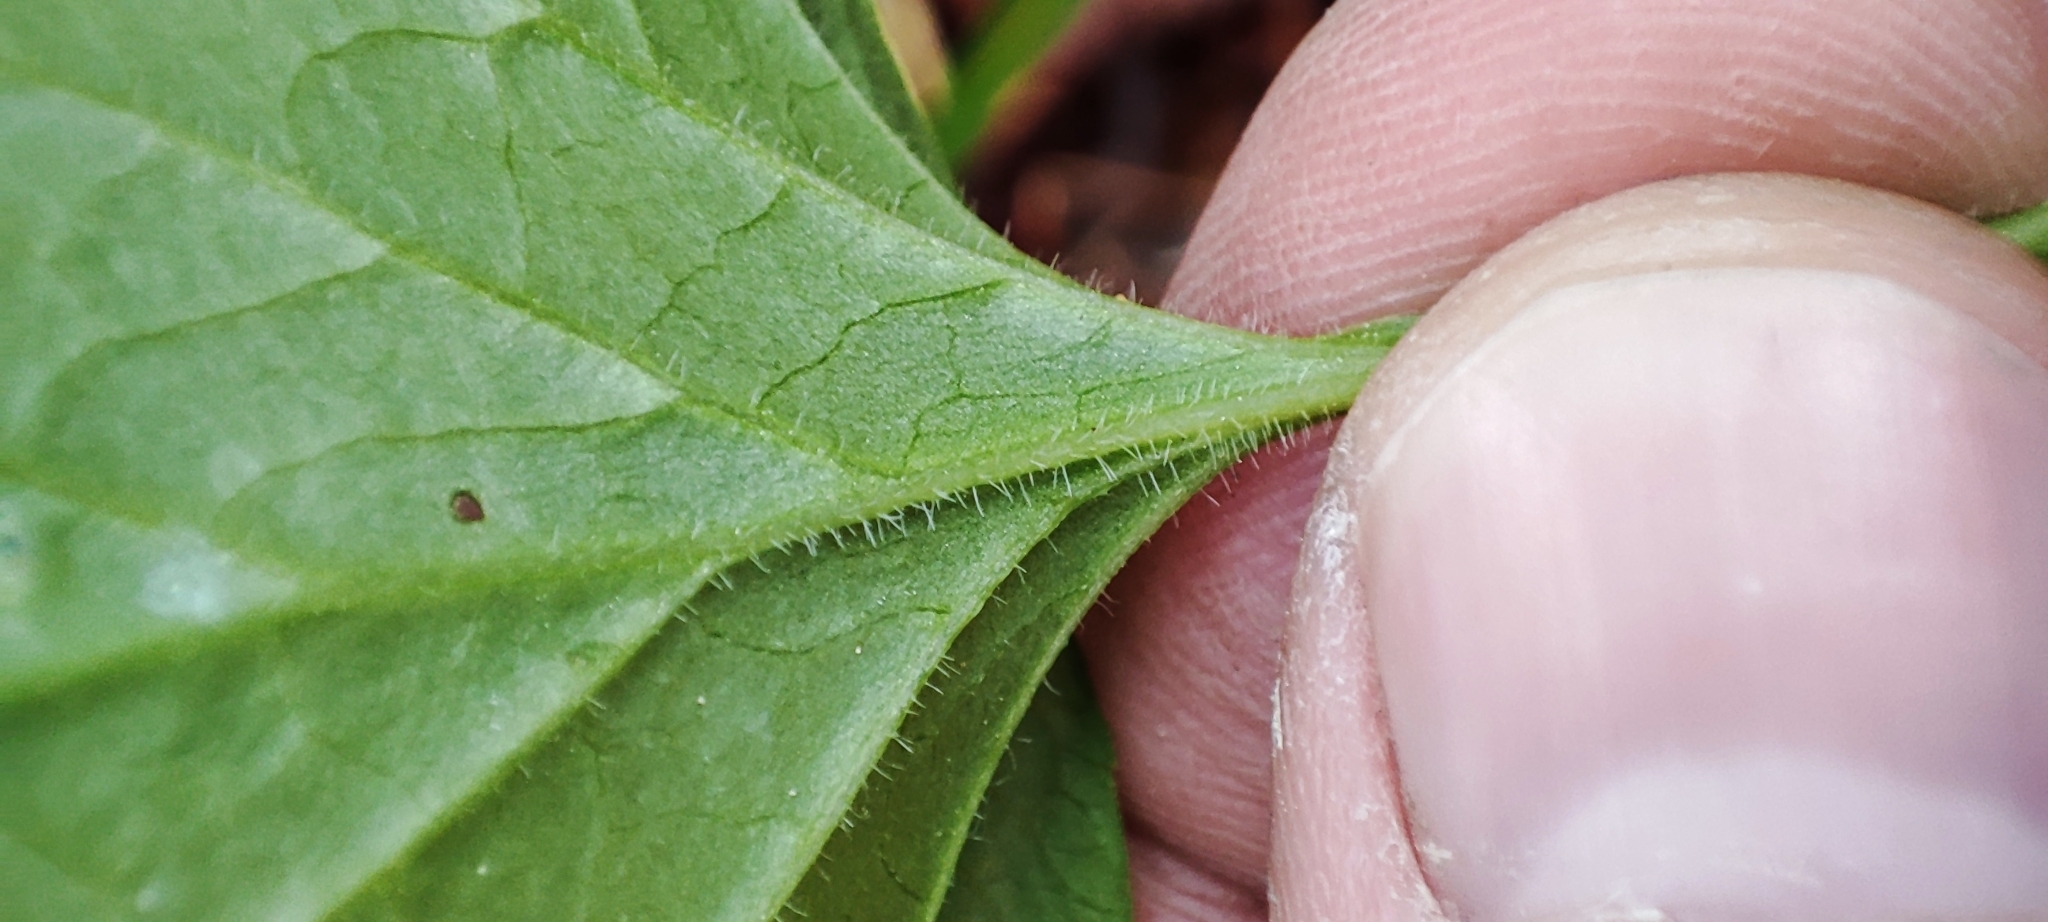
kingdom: Plantae
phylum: Tracheophyta
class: Magnoliopsida
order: Malpighiales
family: Violaceae
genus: Viola
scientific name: Viola mirabilis
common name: Wonder violet
